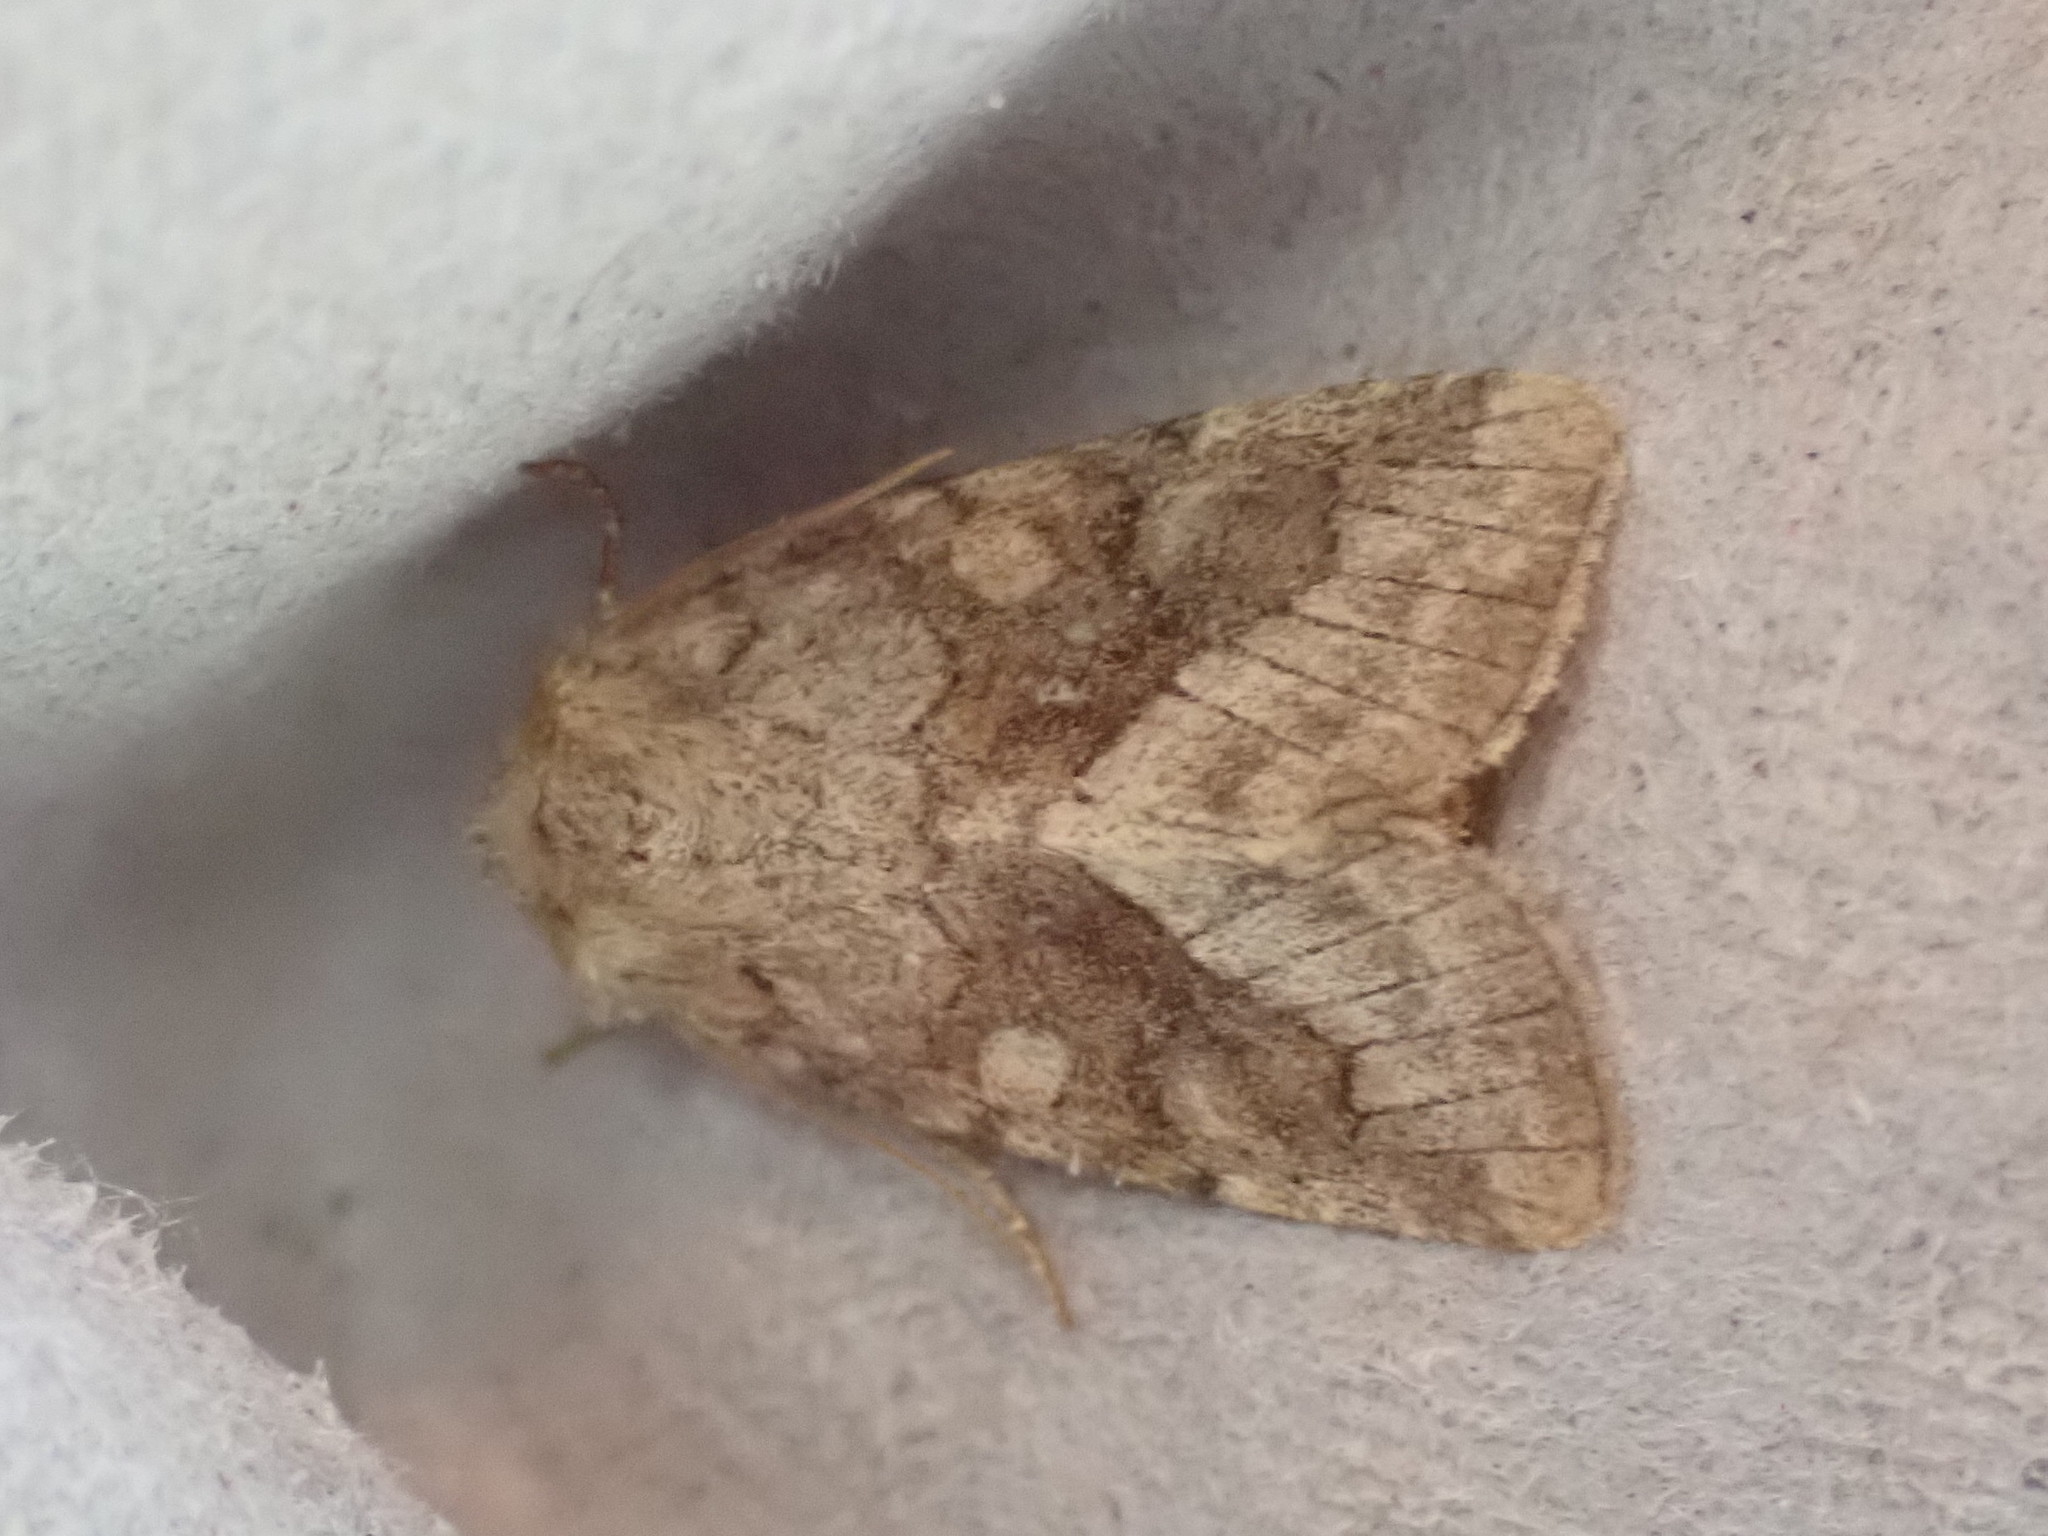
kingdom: Animalia
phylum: Arthropoda
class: Insecta
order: Lepidoptera
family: Noctuidae
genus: Lacinipolia
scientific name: Lacinipolia lorea
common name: Bridled arches moth
